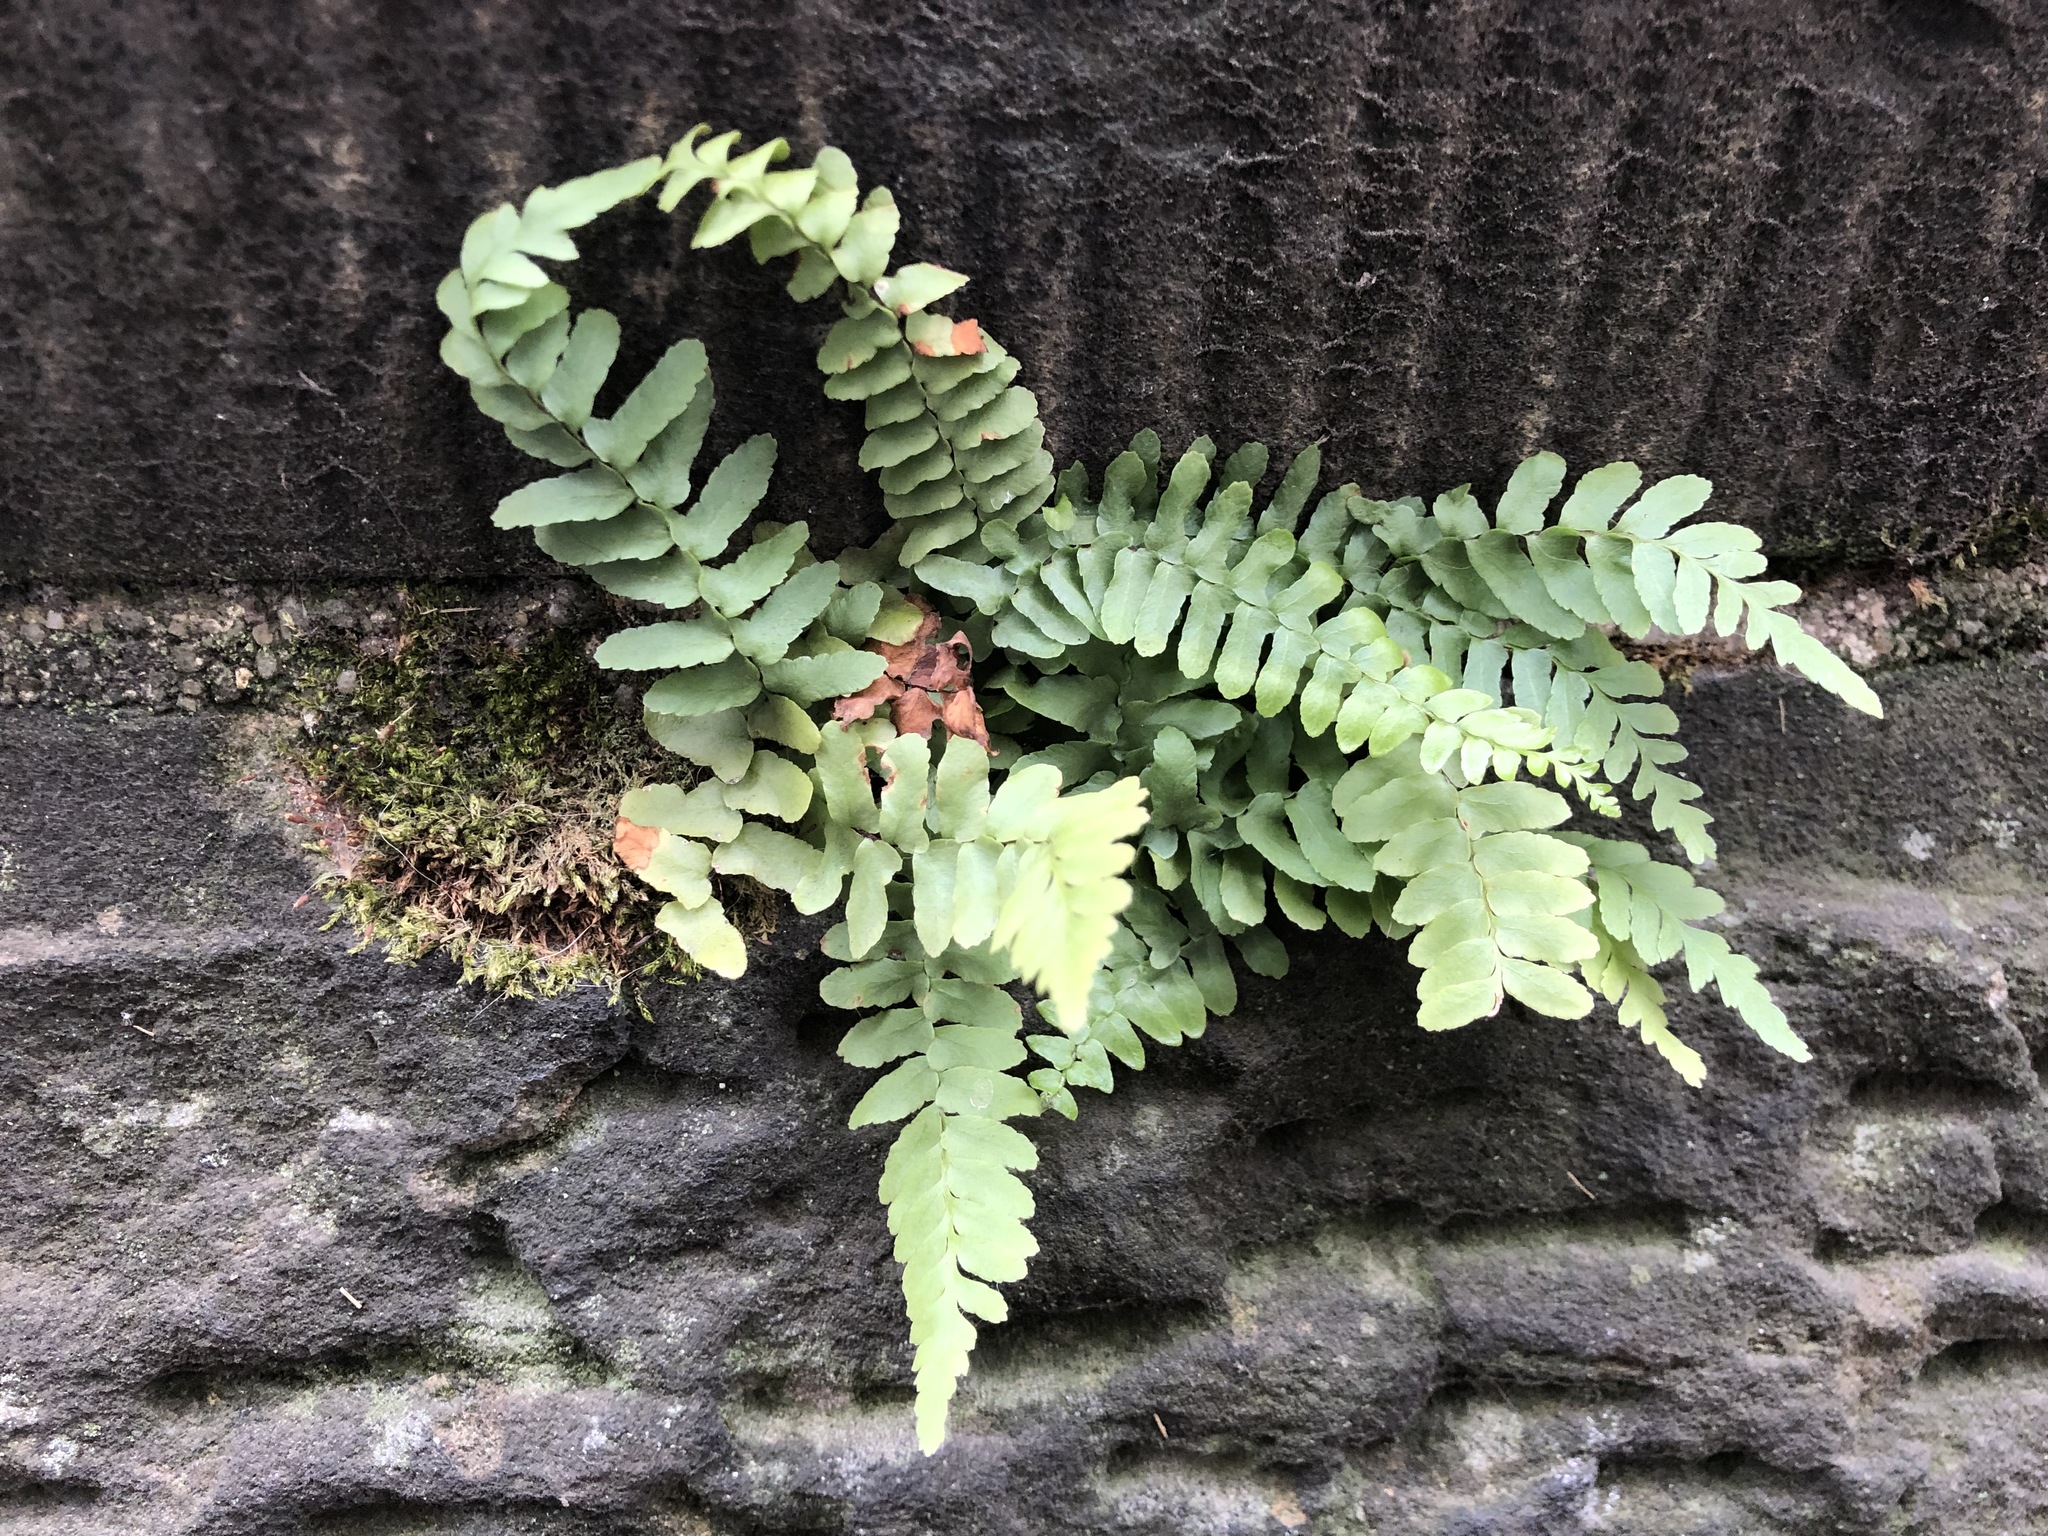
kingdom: Plantae
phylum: Tracheophyta
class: Polypodiopsida
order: Polypodiales
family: Aspleniaceae
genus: Asplenium
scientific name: Asplenium platyneuron
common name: Ebony spleenwort
